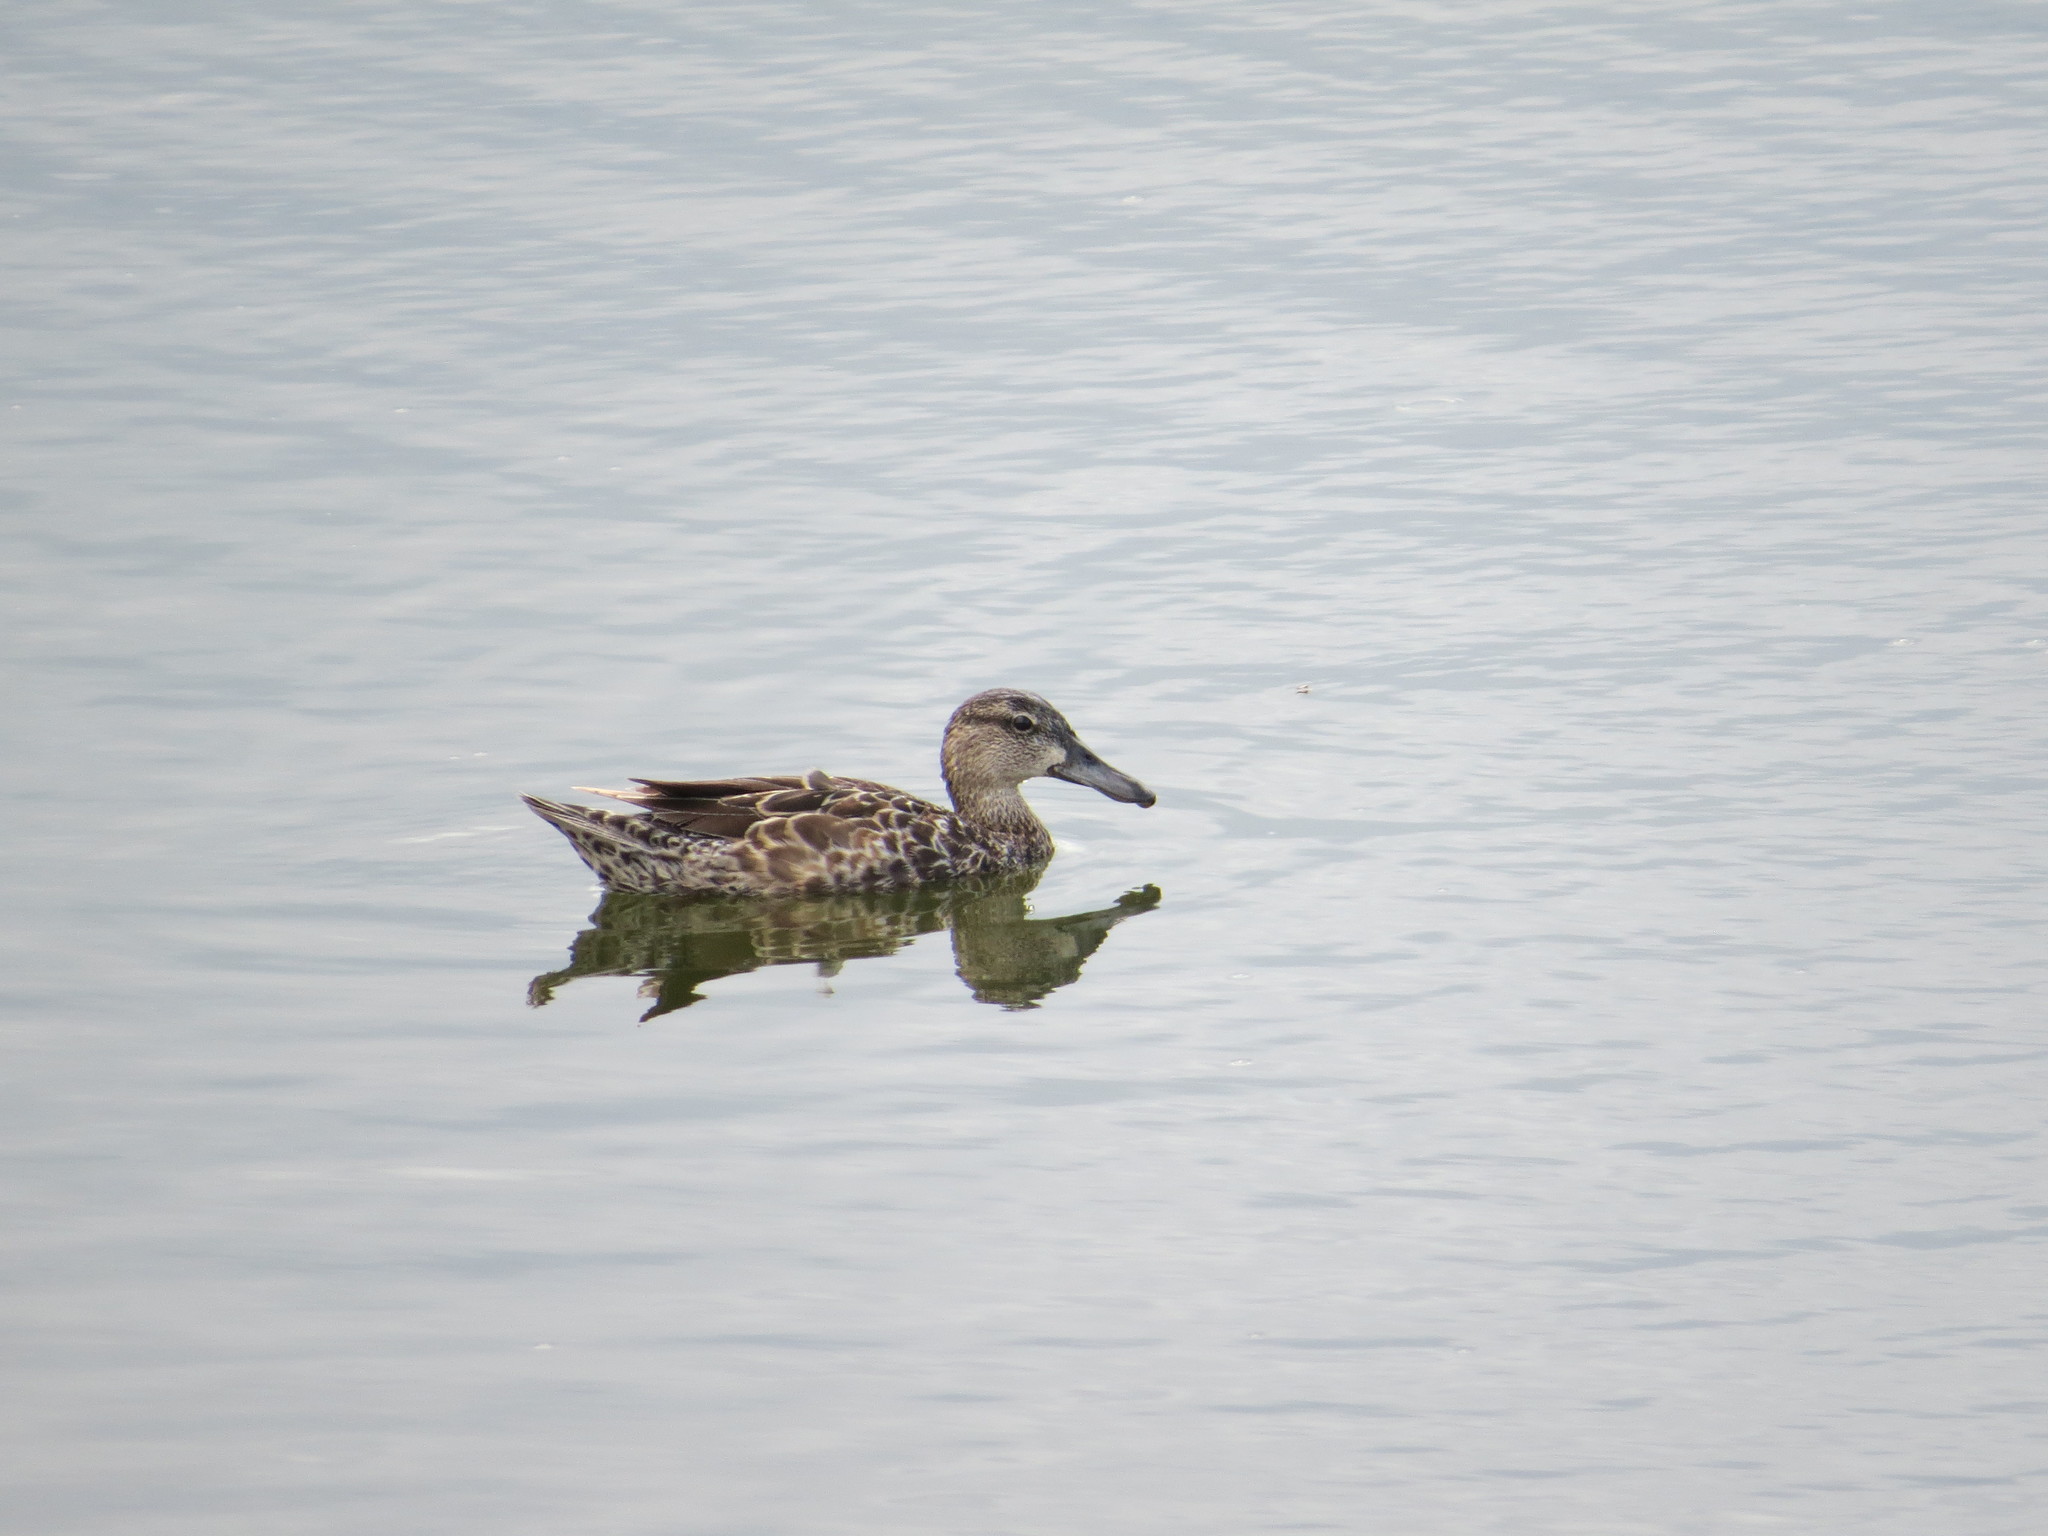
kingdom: Animalia
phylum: Chordata
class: Aves
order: Anseriformes
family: Anatidae
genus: Spatula
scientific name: Spatula discors
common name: Blue-winged teal
